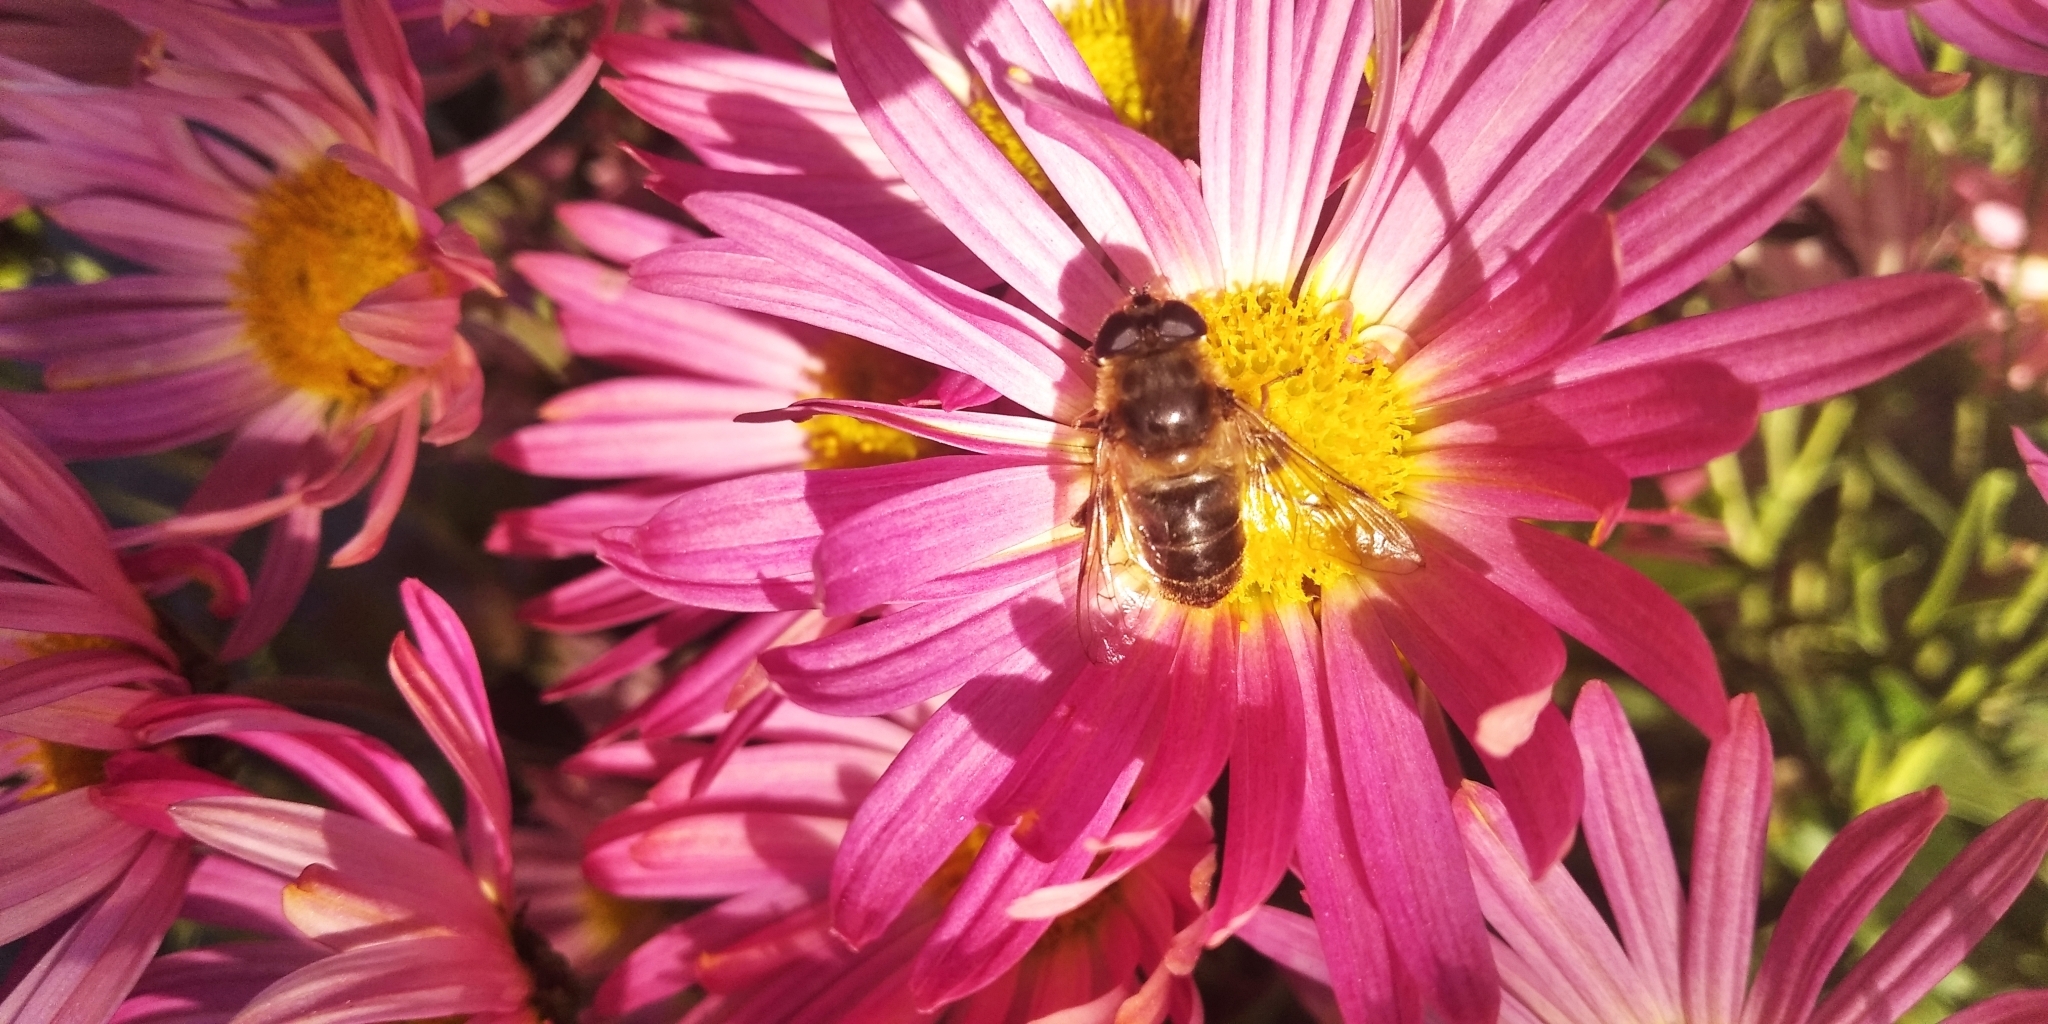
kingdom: Animalia
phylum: Arthropoda
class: Insecta
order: Diptera
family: Syrphidae
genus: Eristalis
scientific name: Eristalis tenax
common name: Drone fly
